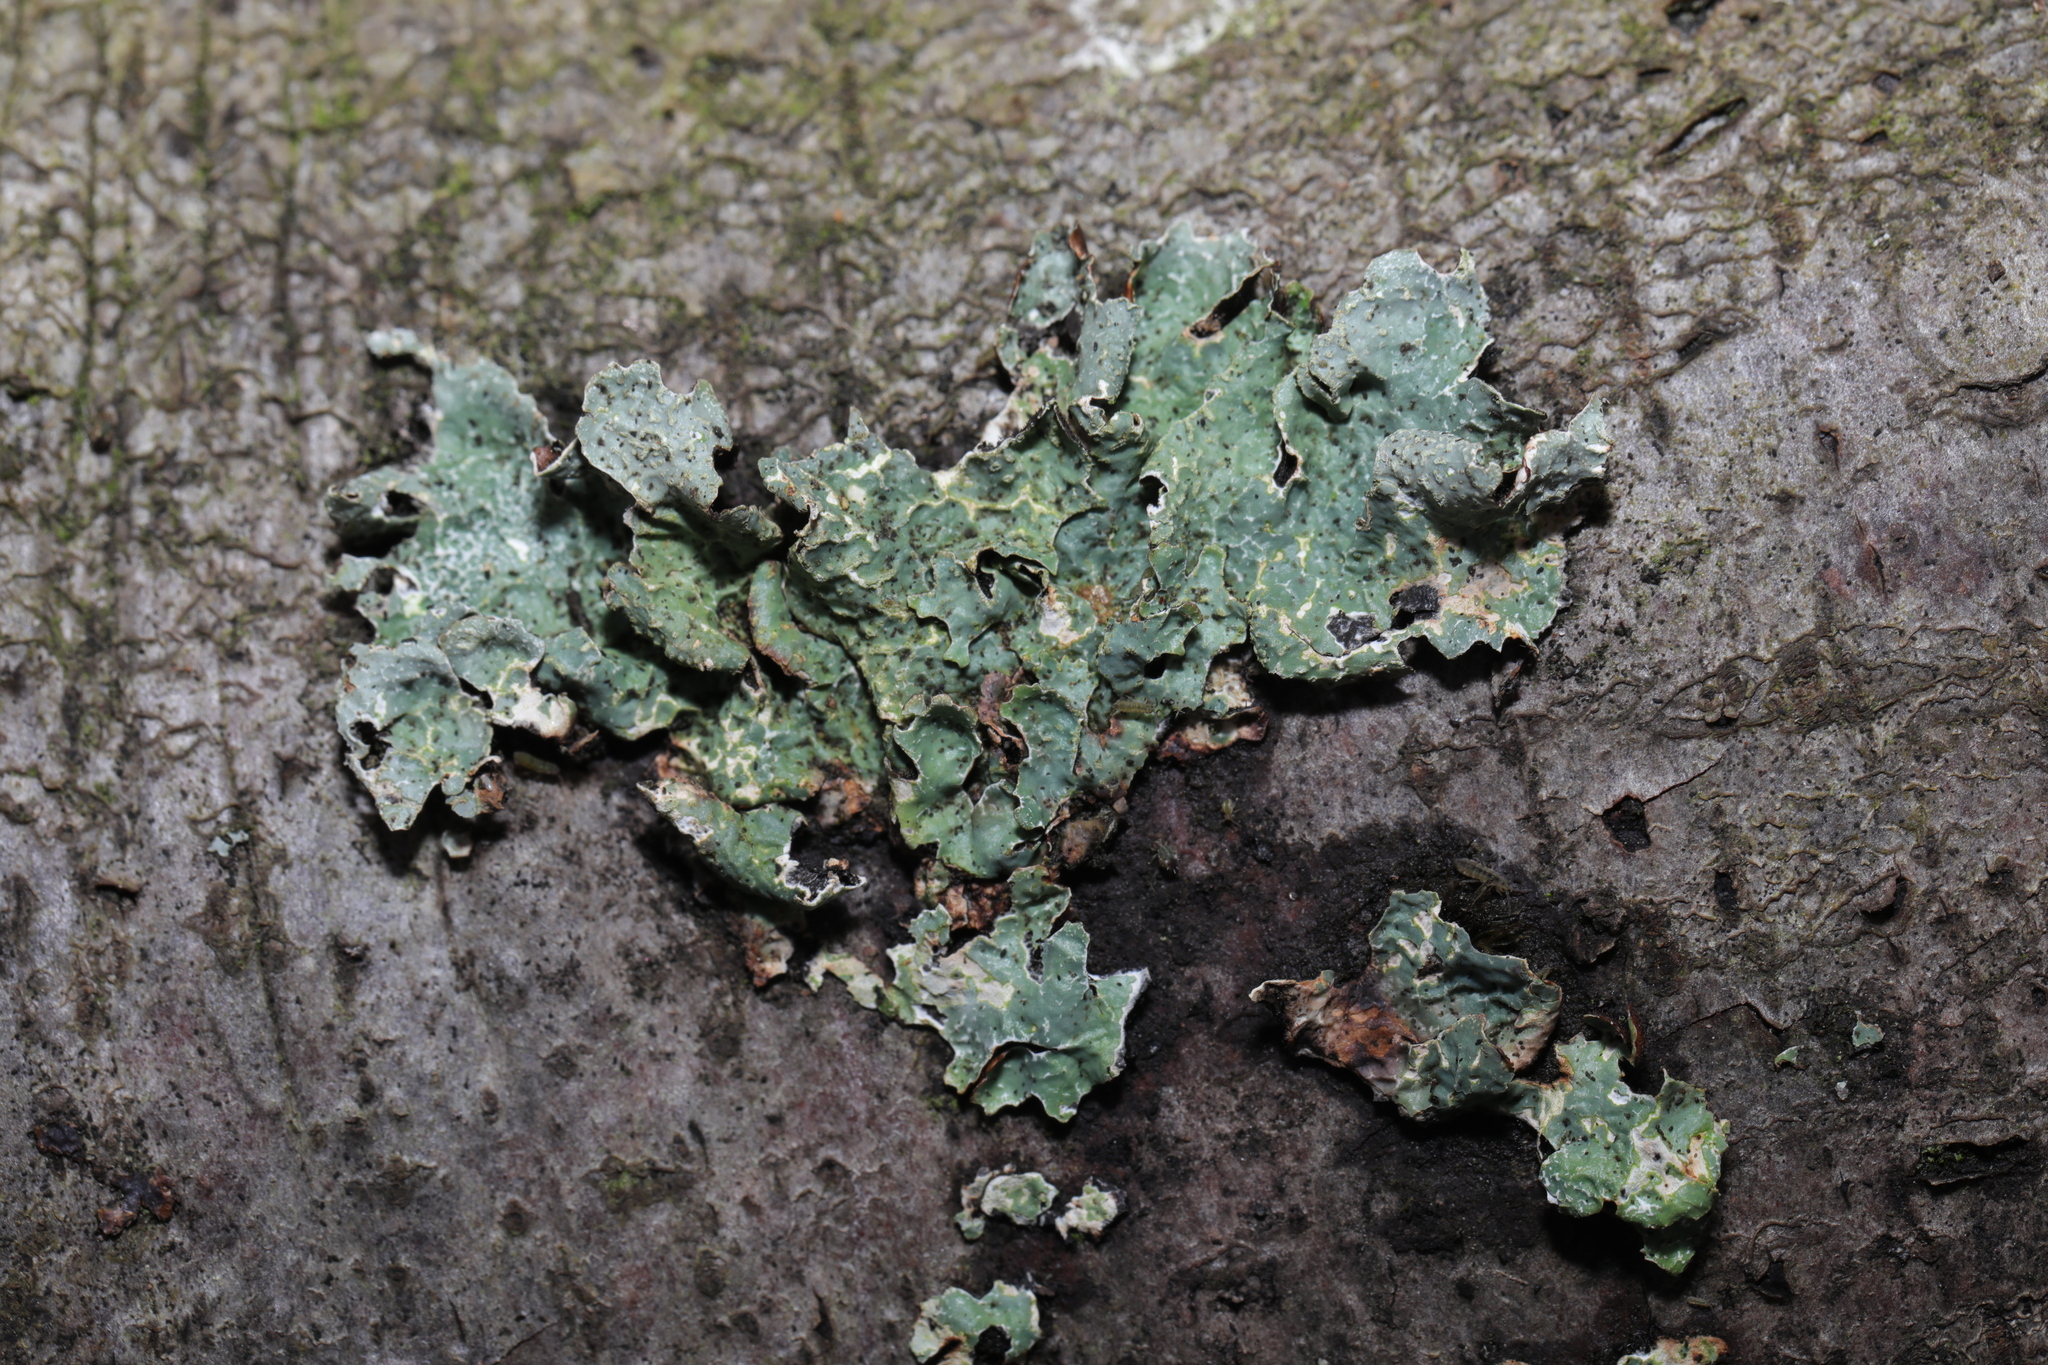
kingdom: Fungi
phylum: Ascomycota
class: Lecanoromycetes
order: Lecanorales
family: Parmeliaceae
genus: Parmelia
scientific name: Parmelia sulcata
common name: Netted shield lichen
